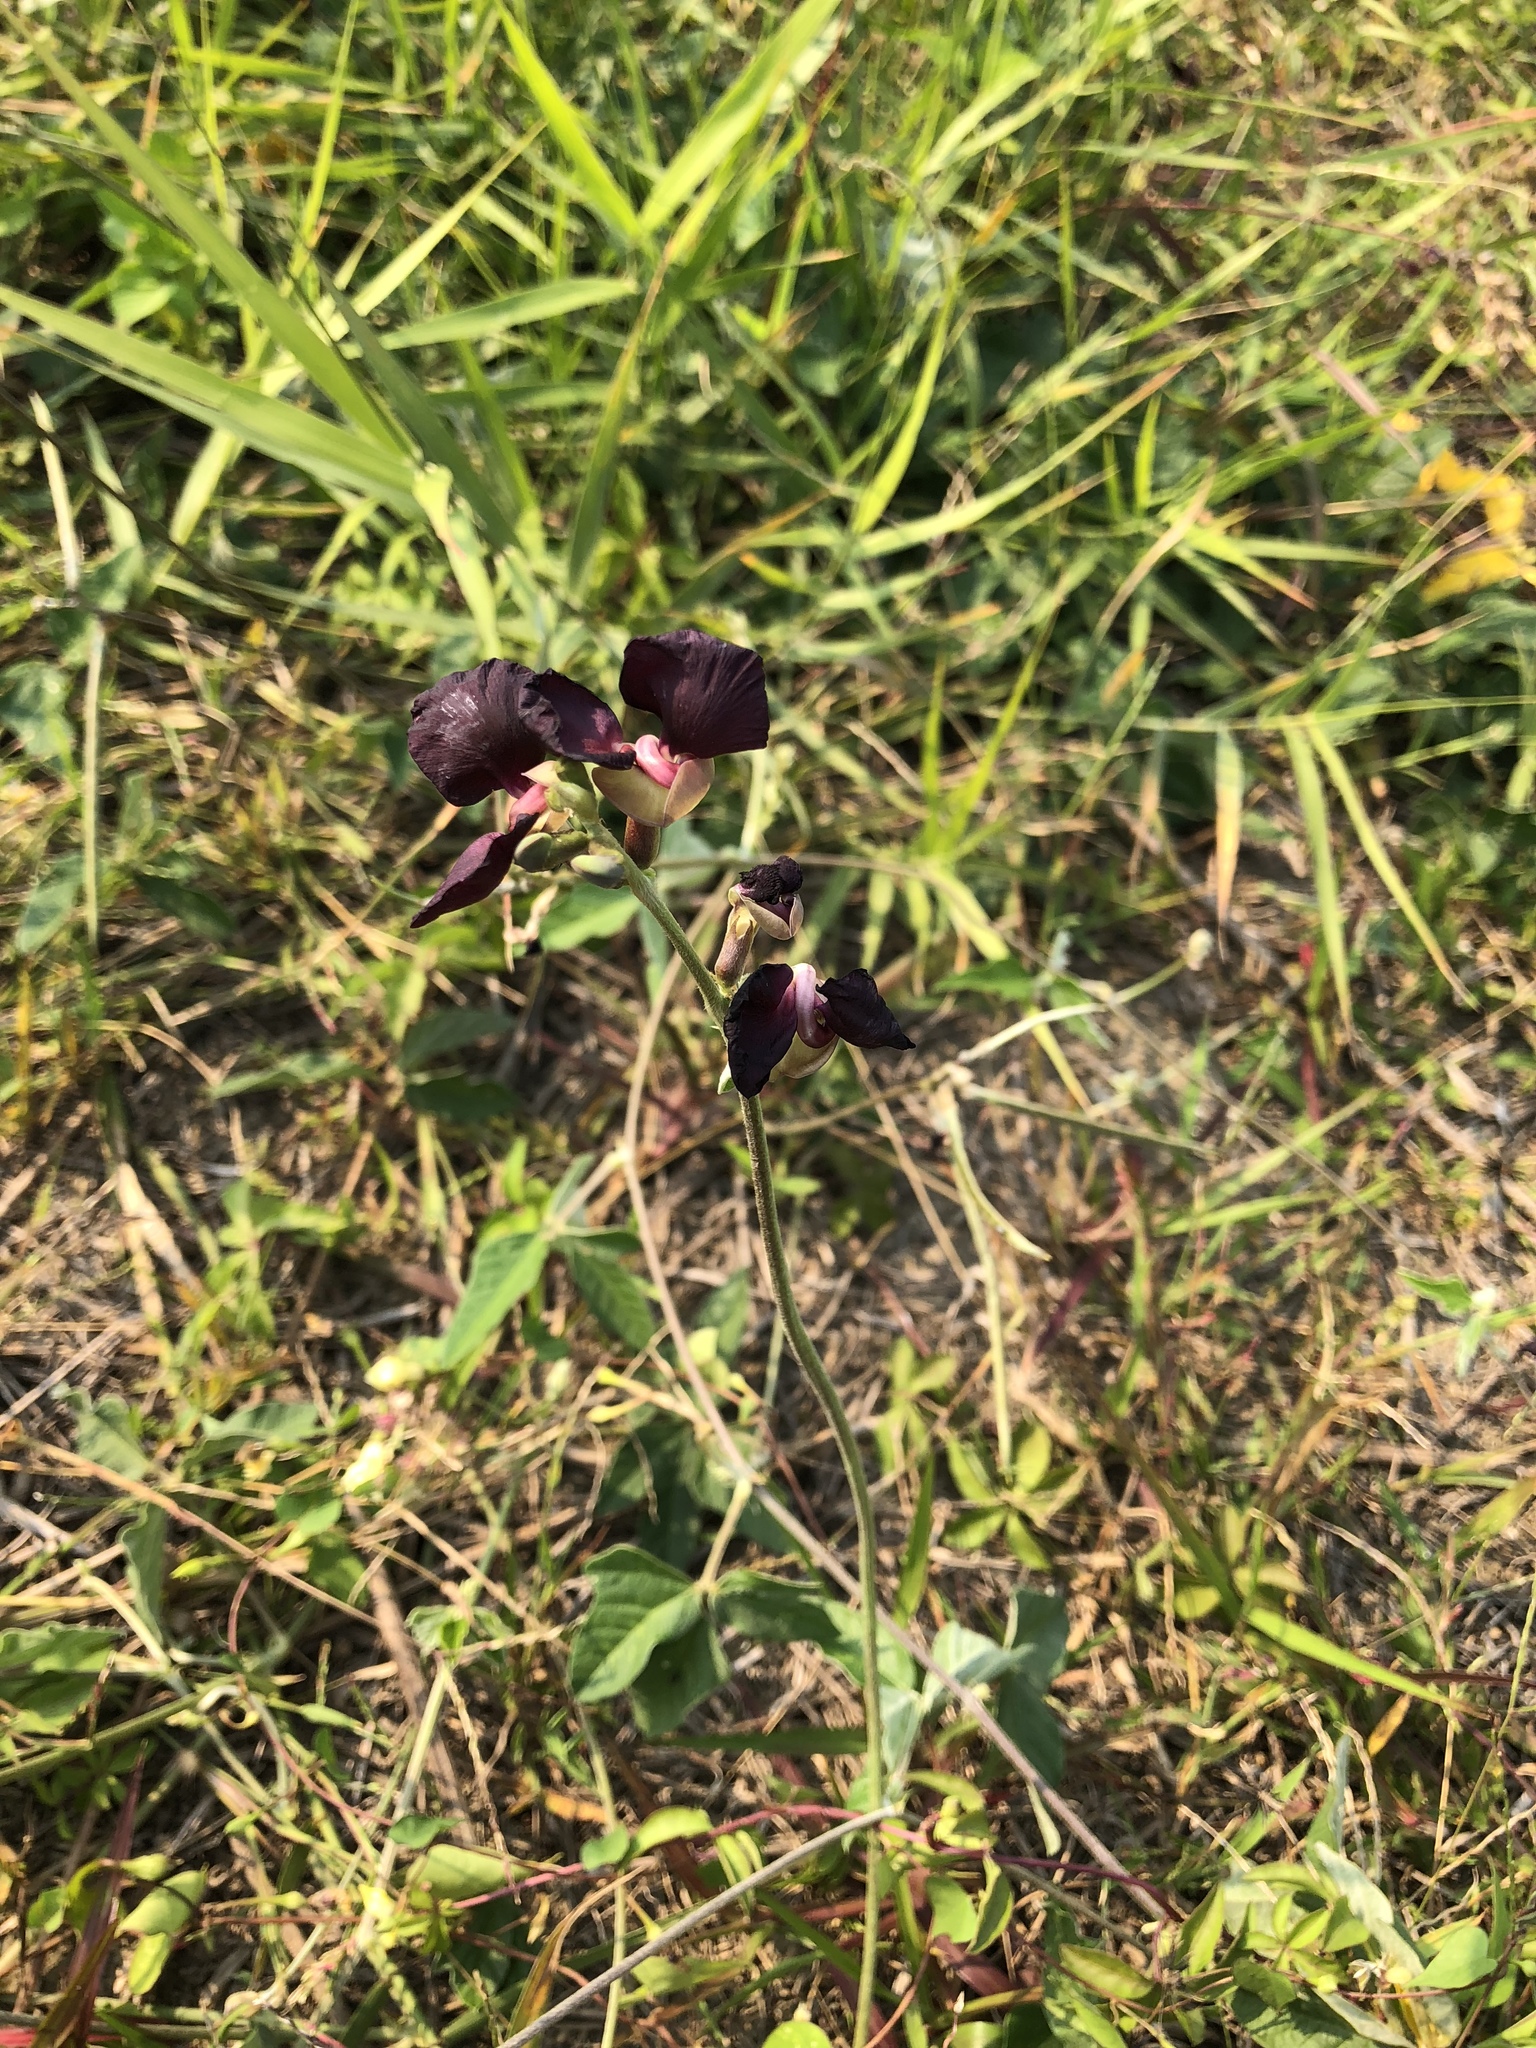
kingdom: Plantae
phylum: Tracheophyta
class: Magnoliopsida
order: Fabales
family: Fabaceae
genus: Macroptilium
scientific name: Macroptilium atropurpureum
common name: Purple bushbean
